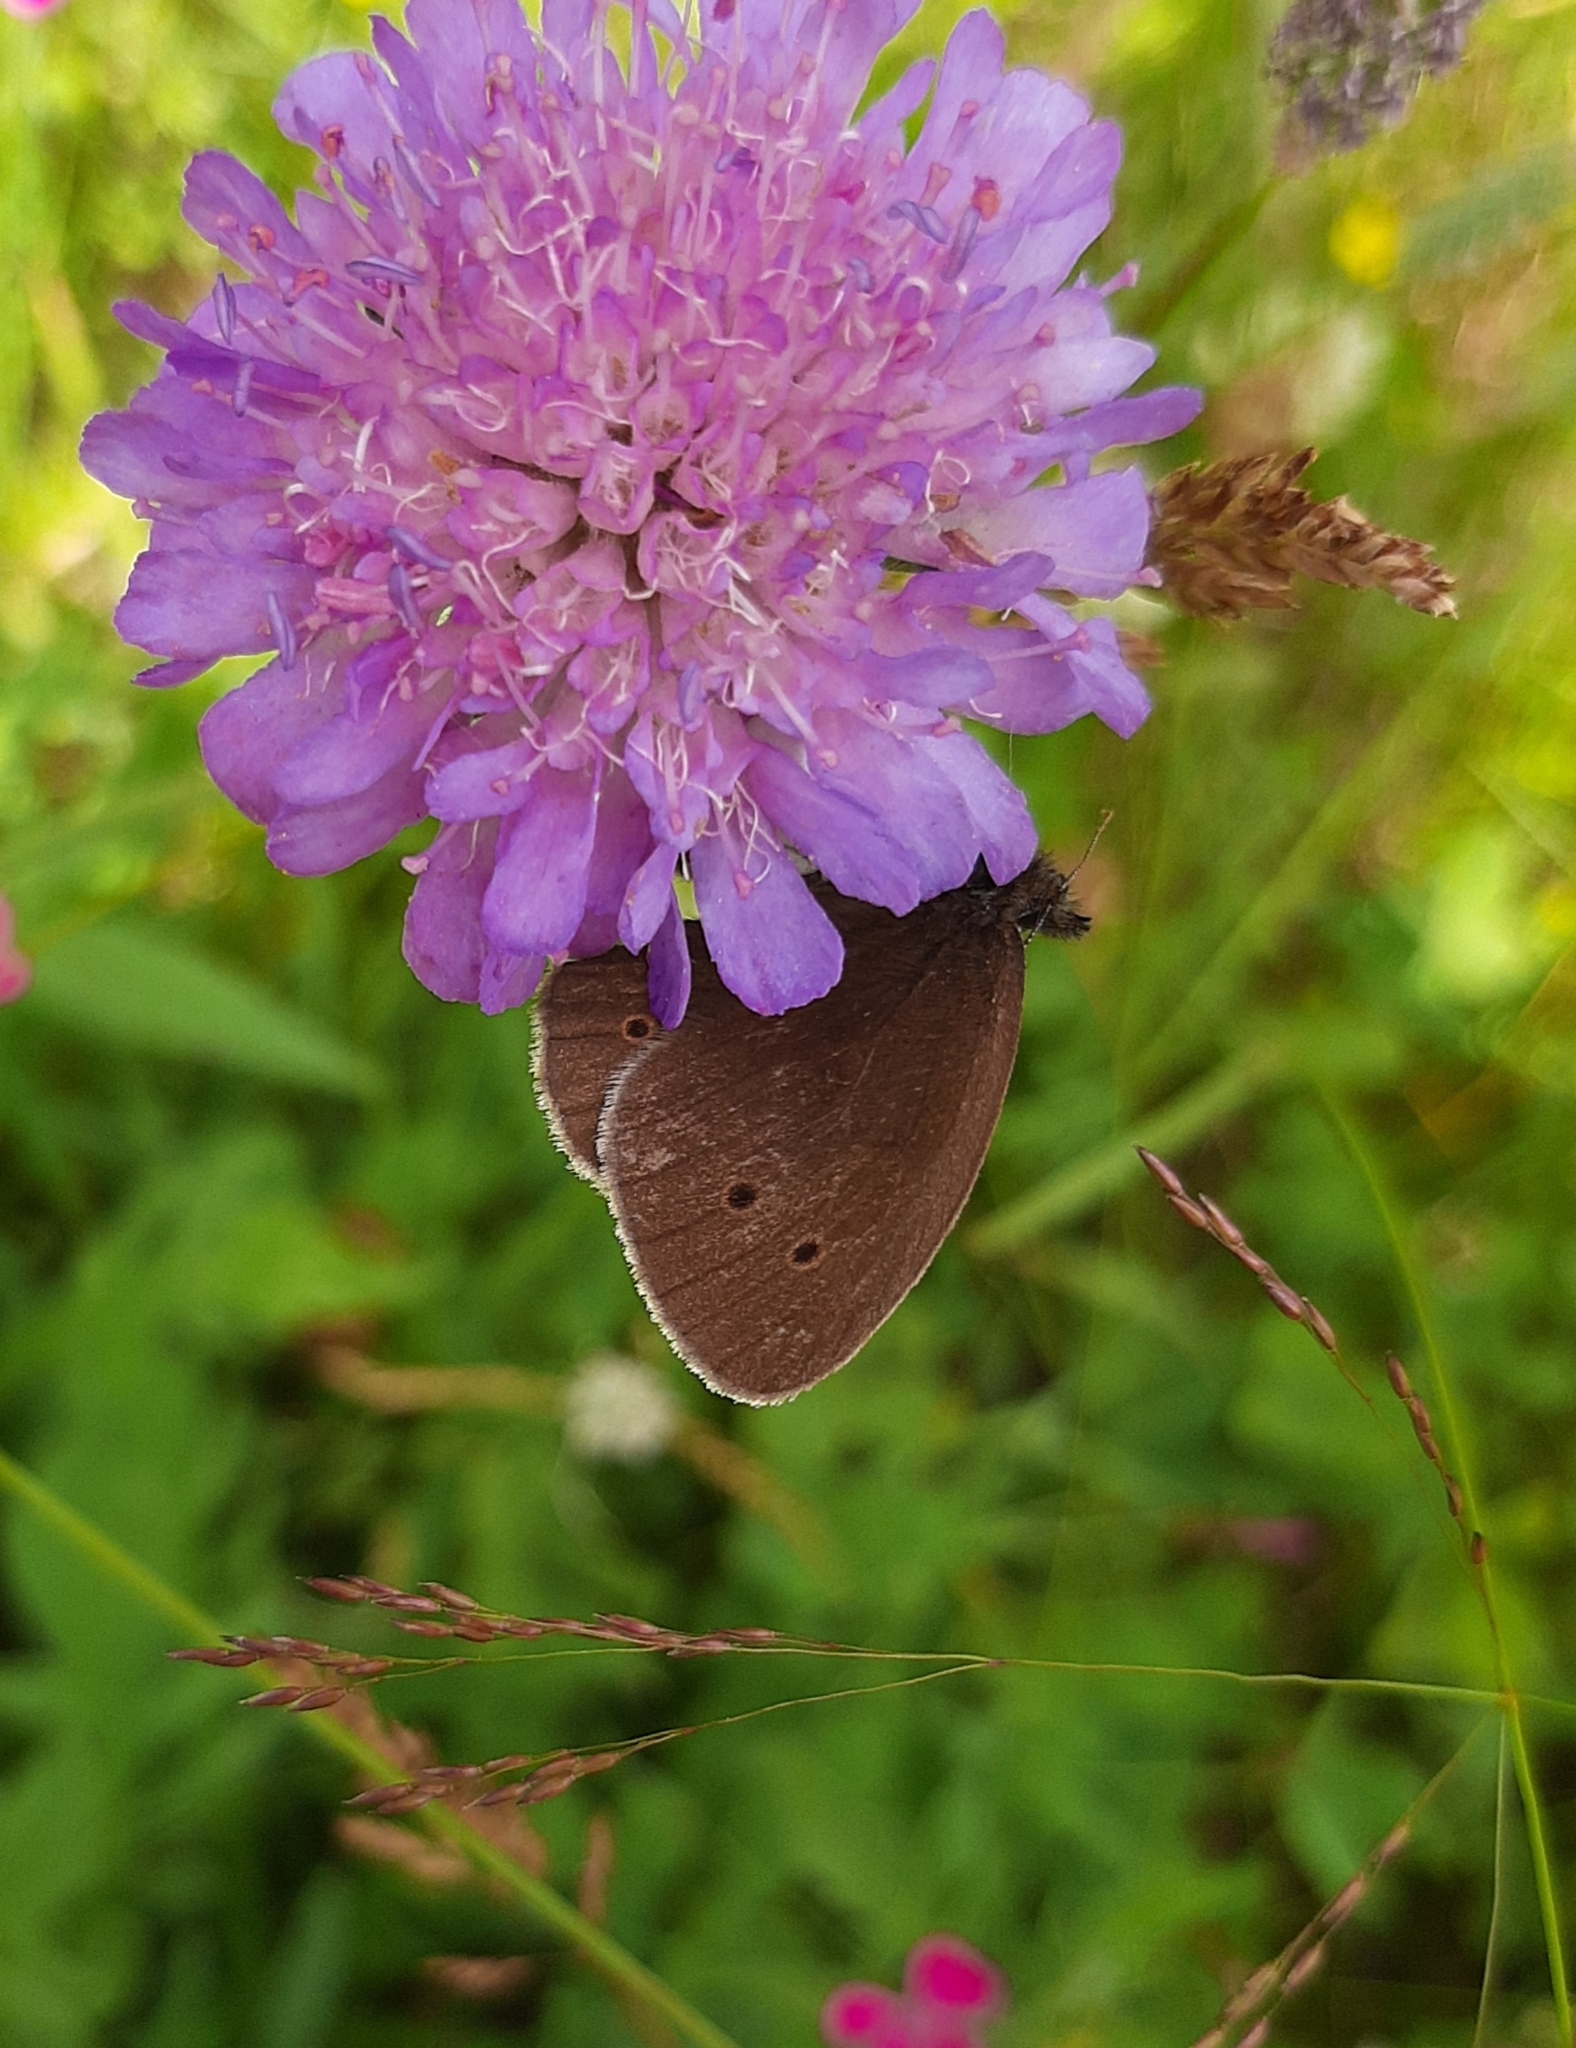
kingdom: Animalia
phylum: Arthropoda
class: Insecta
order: Lepidoptera
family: Nymphalidae
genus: Aphantopus
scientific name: Aphantopus hyperantus
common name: Ringlet
